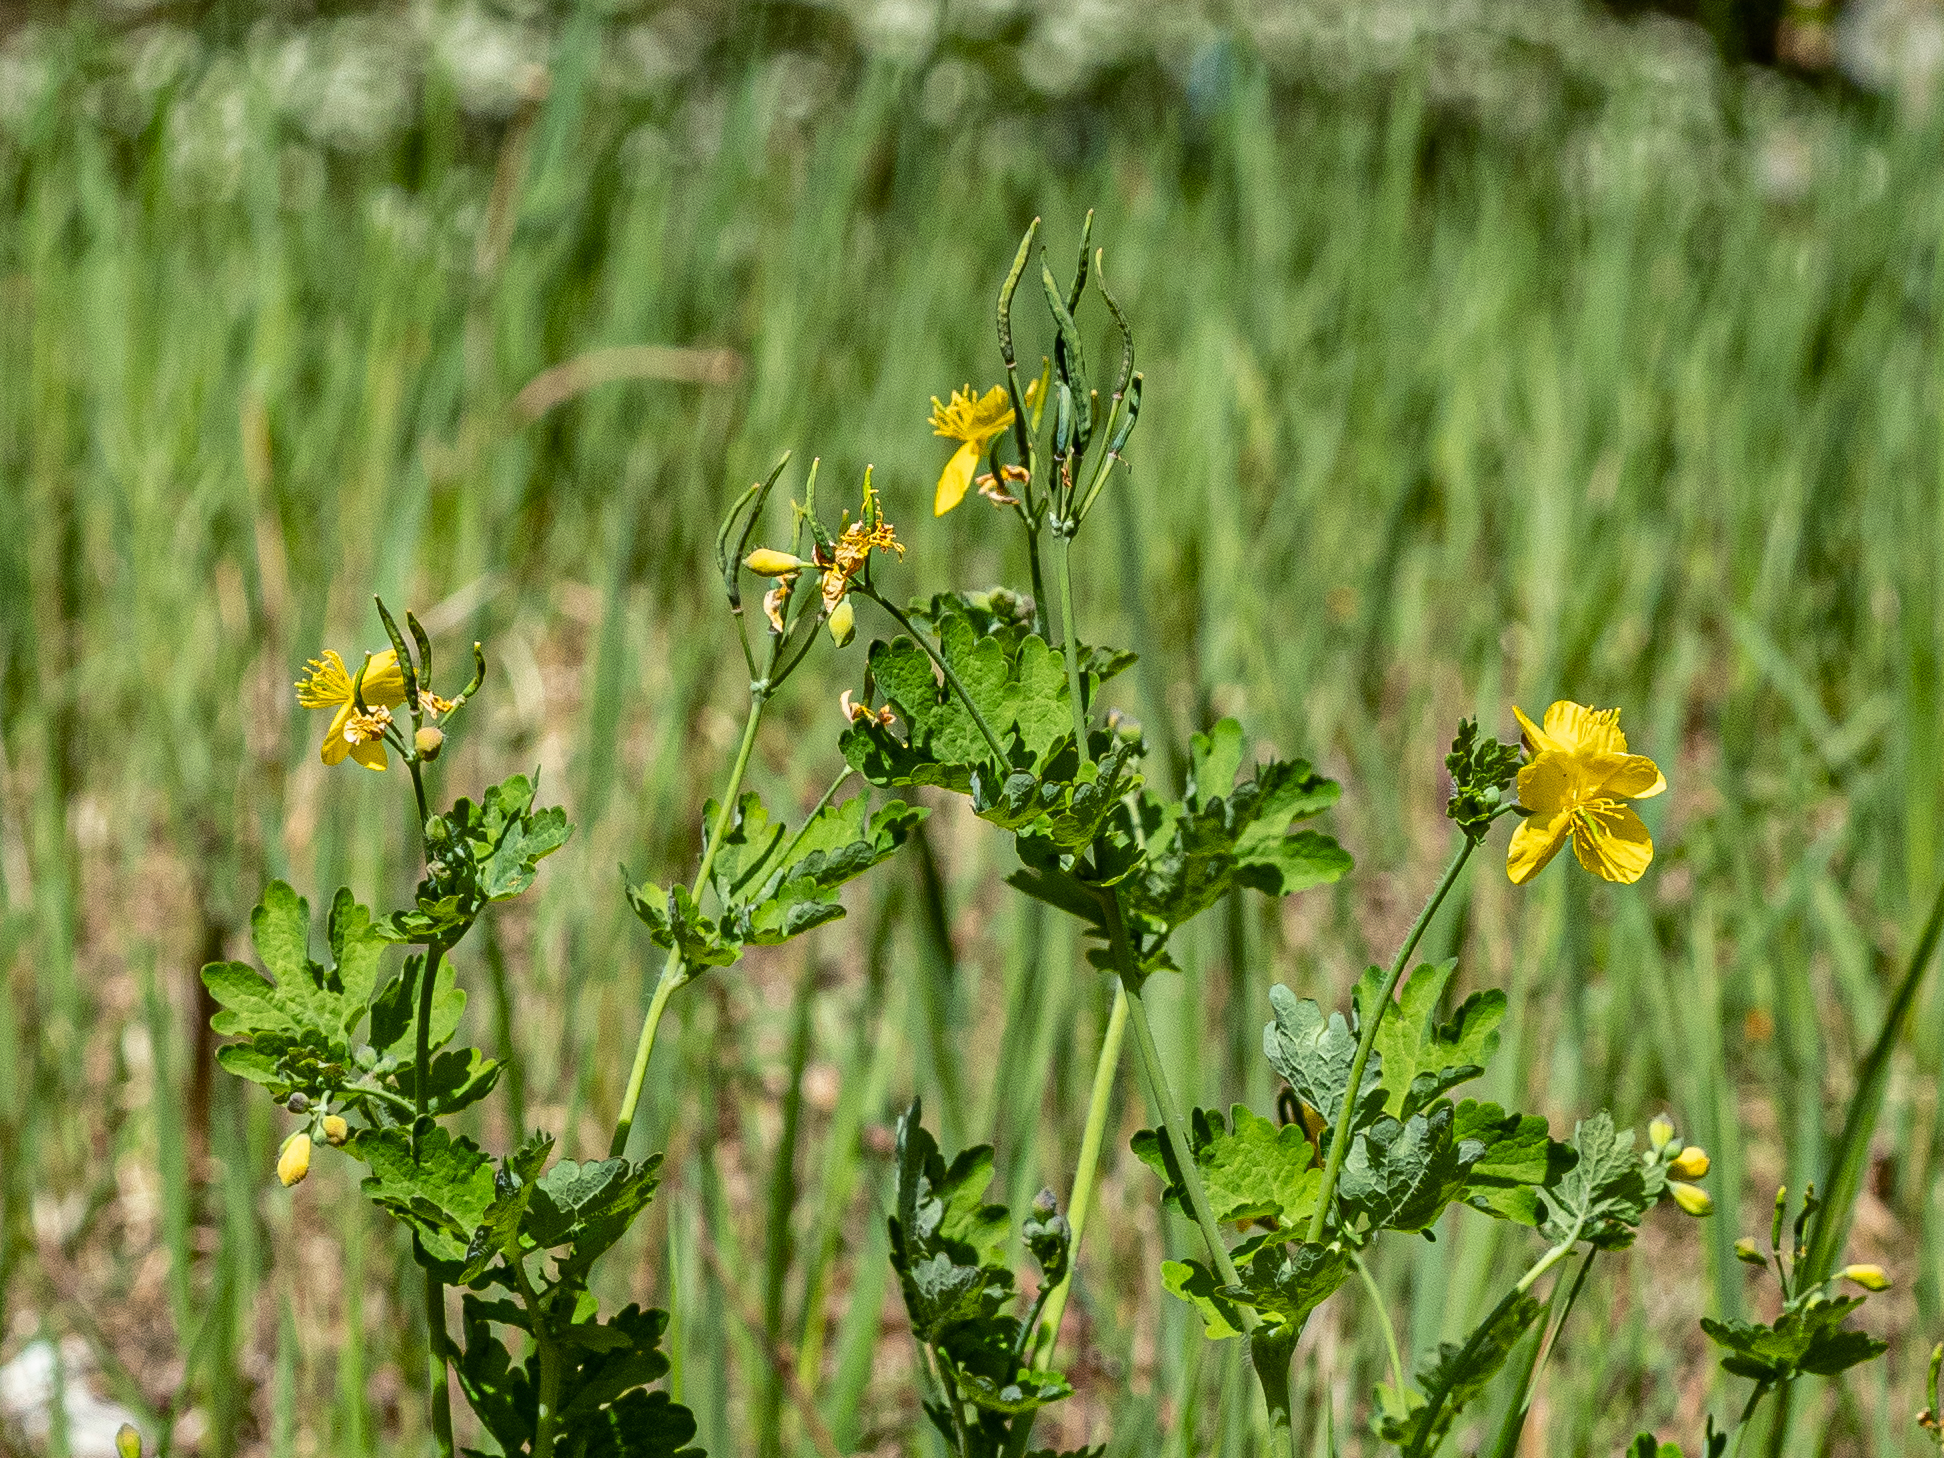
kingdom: Plantae
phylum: Tracheophyta
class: Magnoliopsida
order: Ranunculales
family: Papaveraceae
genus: Chelidonium
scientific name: Chelidonium majus
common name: Greater celandine
